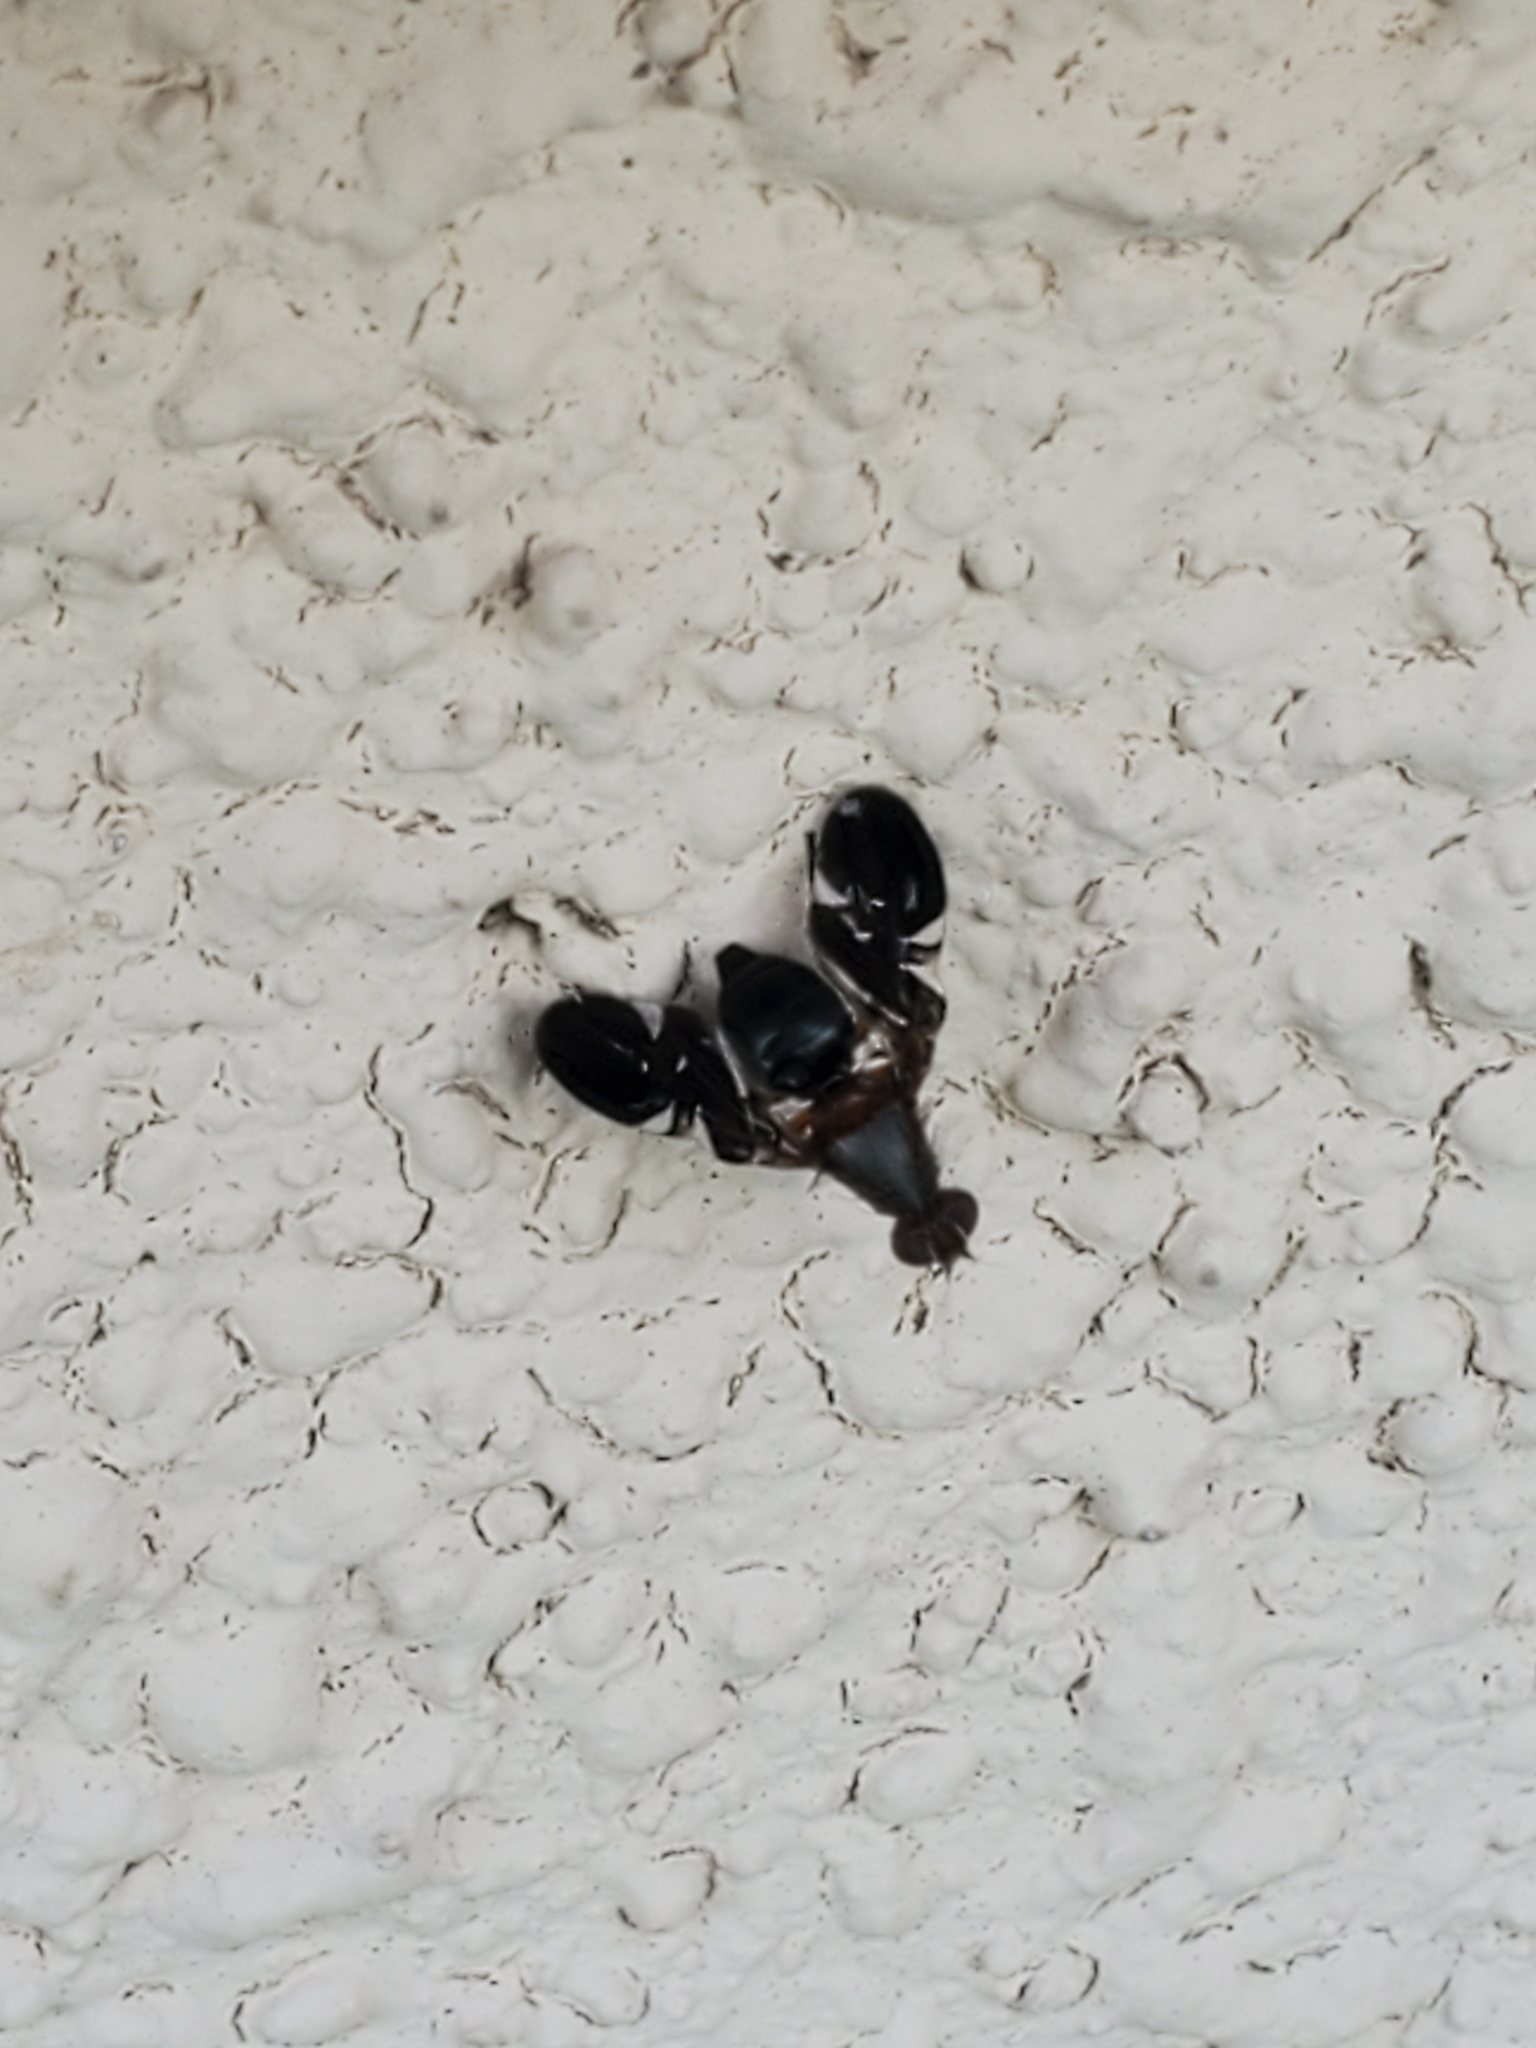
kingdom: Animalia
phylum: Arthropoda
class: Insecta
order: Diptera
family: Ulidiidae
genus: Delphinia
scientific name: Delphinia picta
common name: Common picture-winged fly
